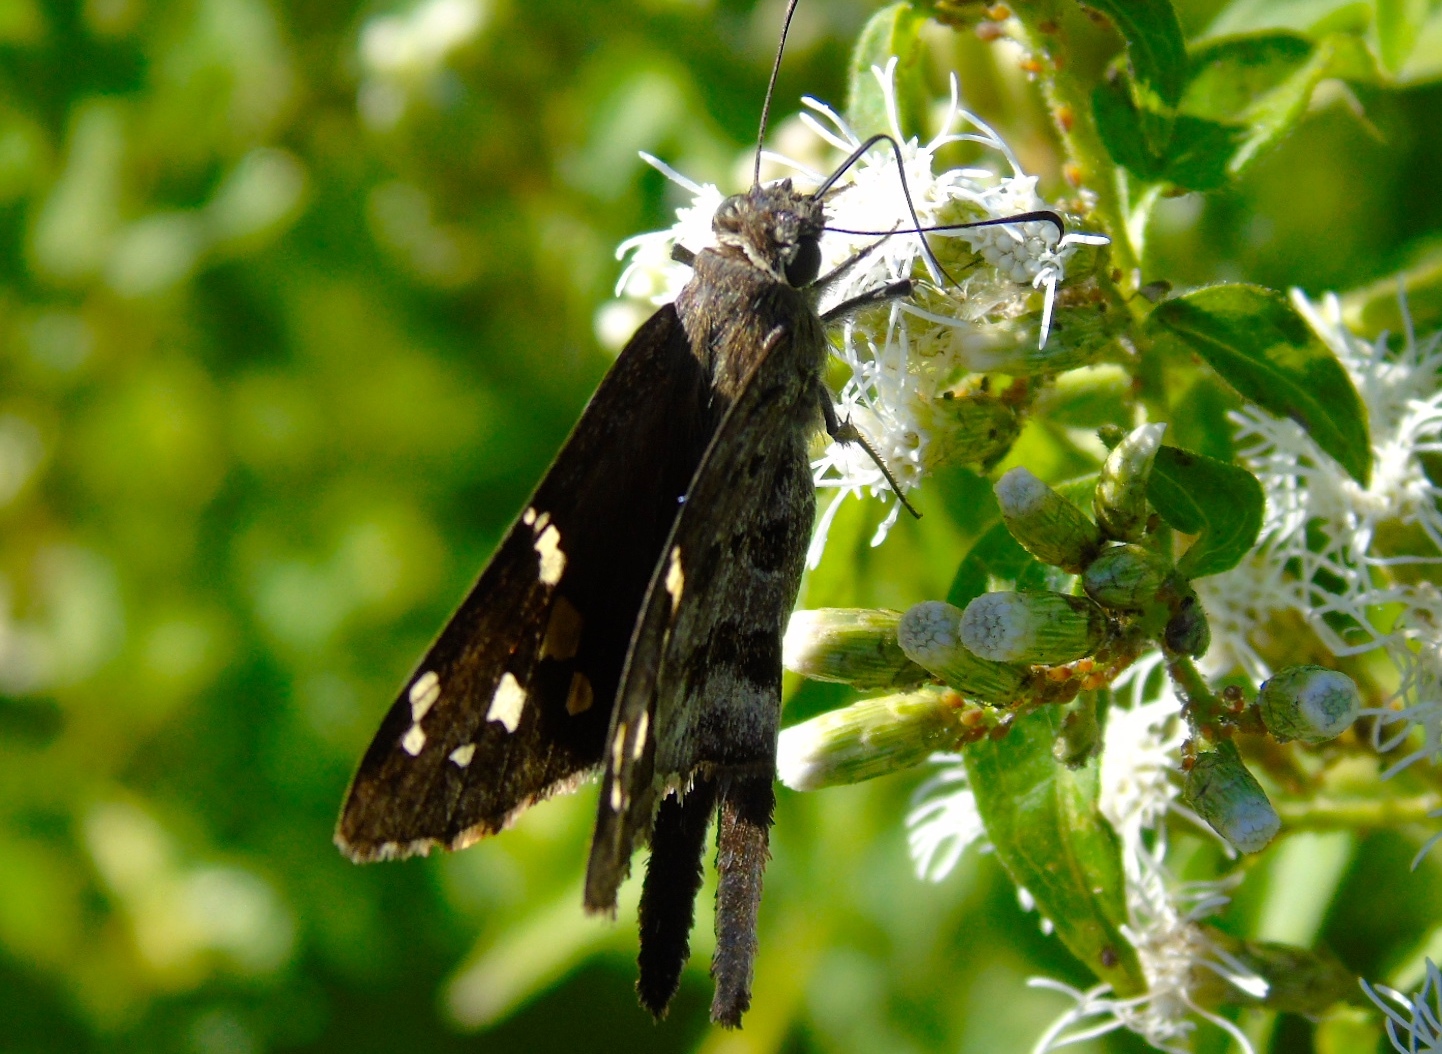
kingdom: Animalia
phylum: Arthropoda
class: Insecta
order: Lepidoptera
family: Hesperiidae
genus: Thorybes
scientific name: Thorybes
